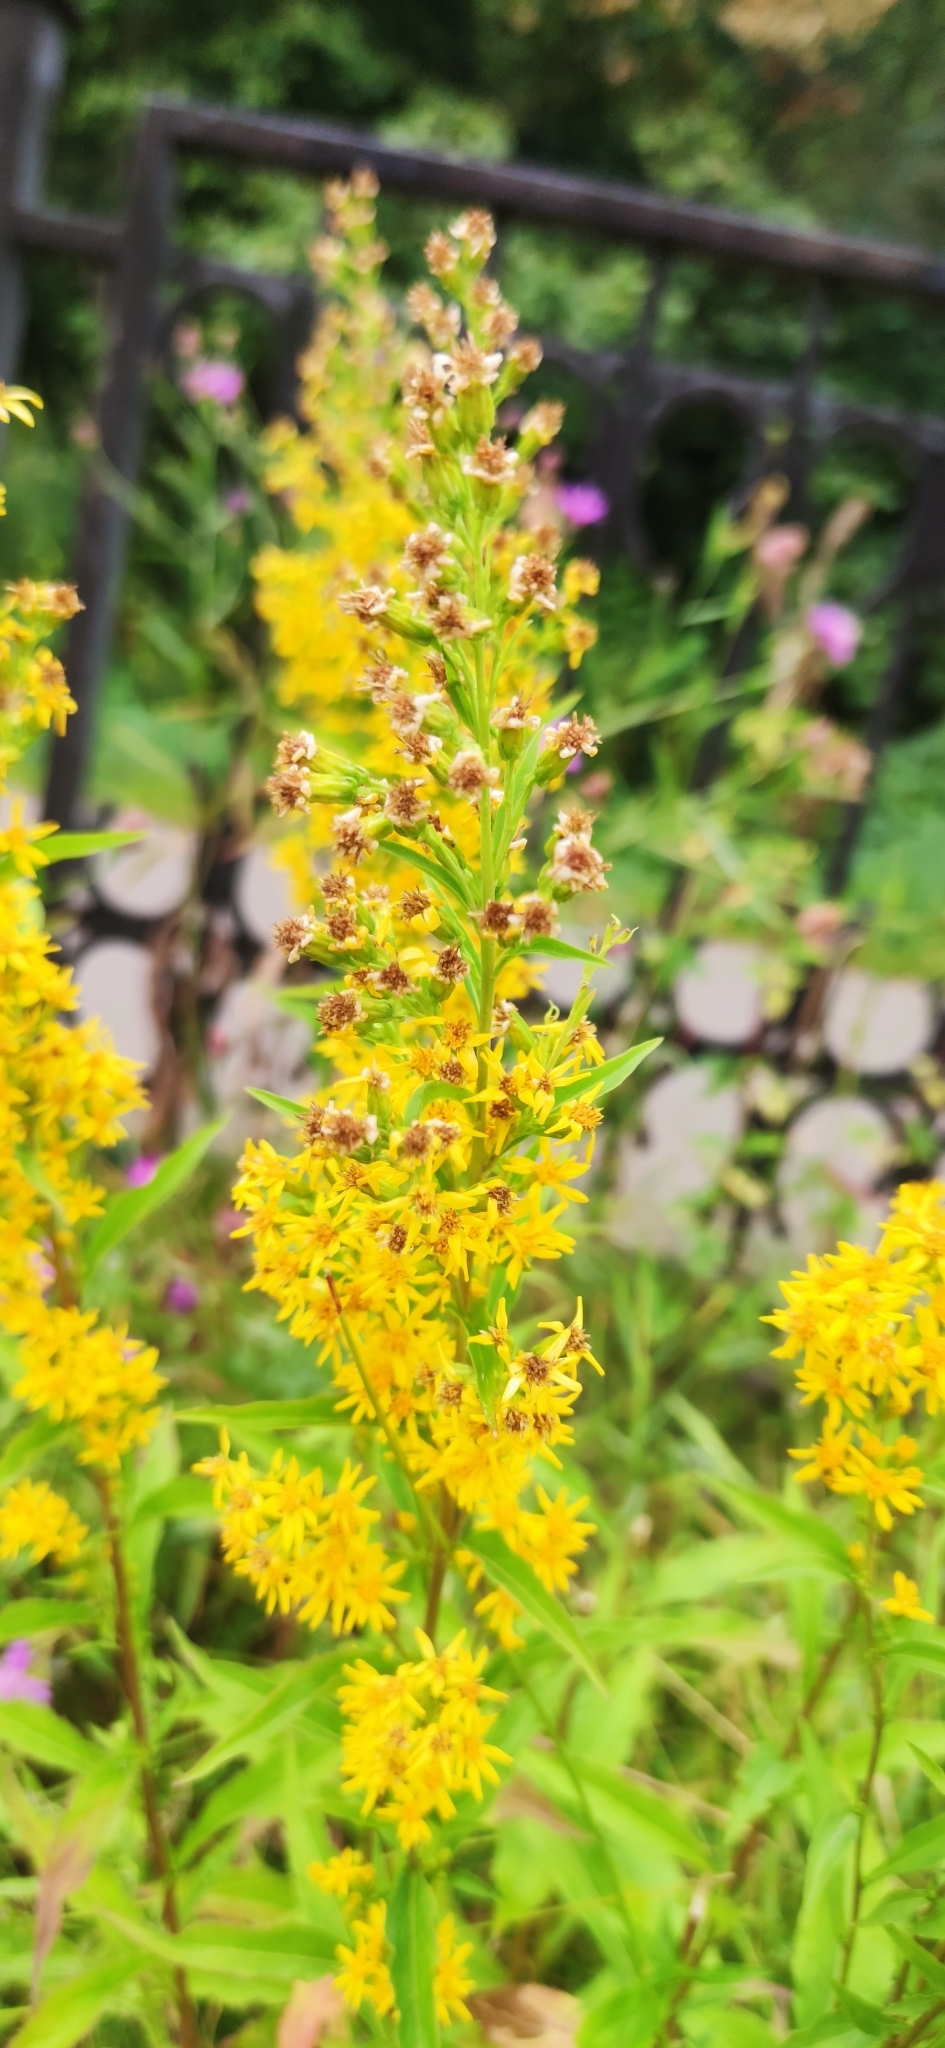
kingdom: Plantae
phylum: Tracheophyta
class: Magnoliopsida
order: Asterales
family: Asteraceae
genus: Solidago
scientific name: Solidago virgaurea
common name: Goldenrod
